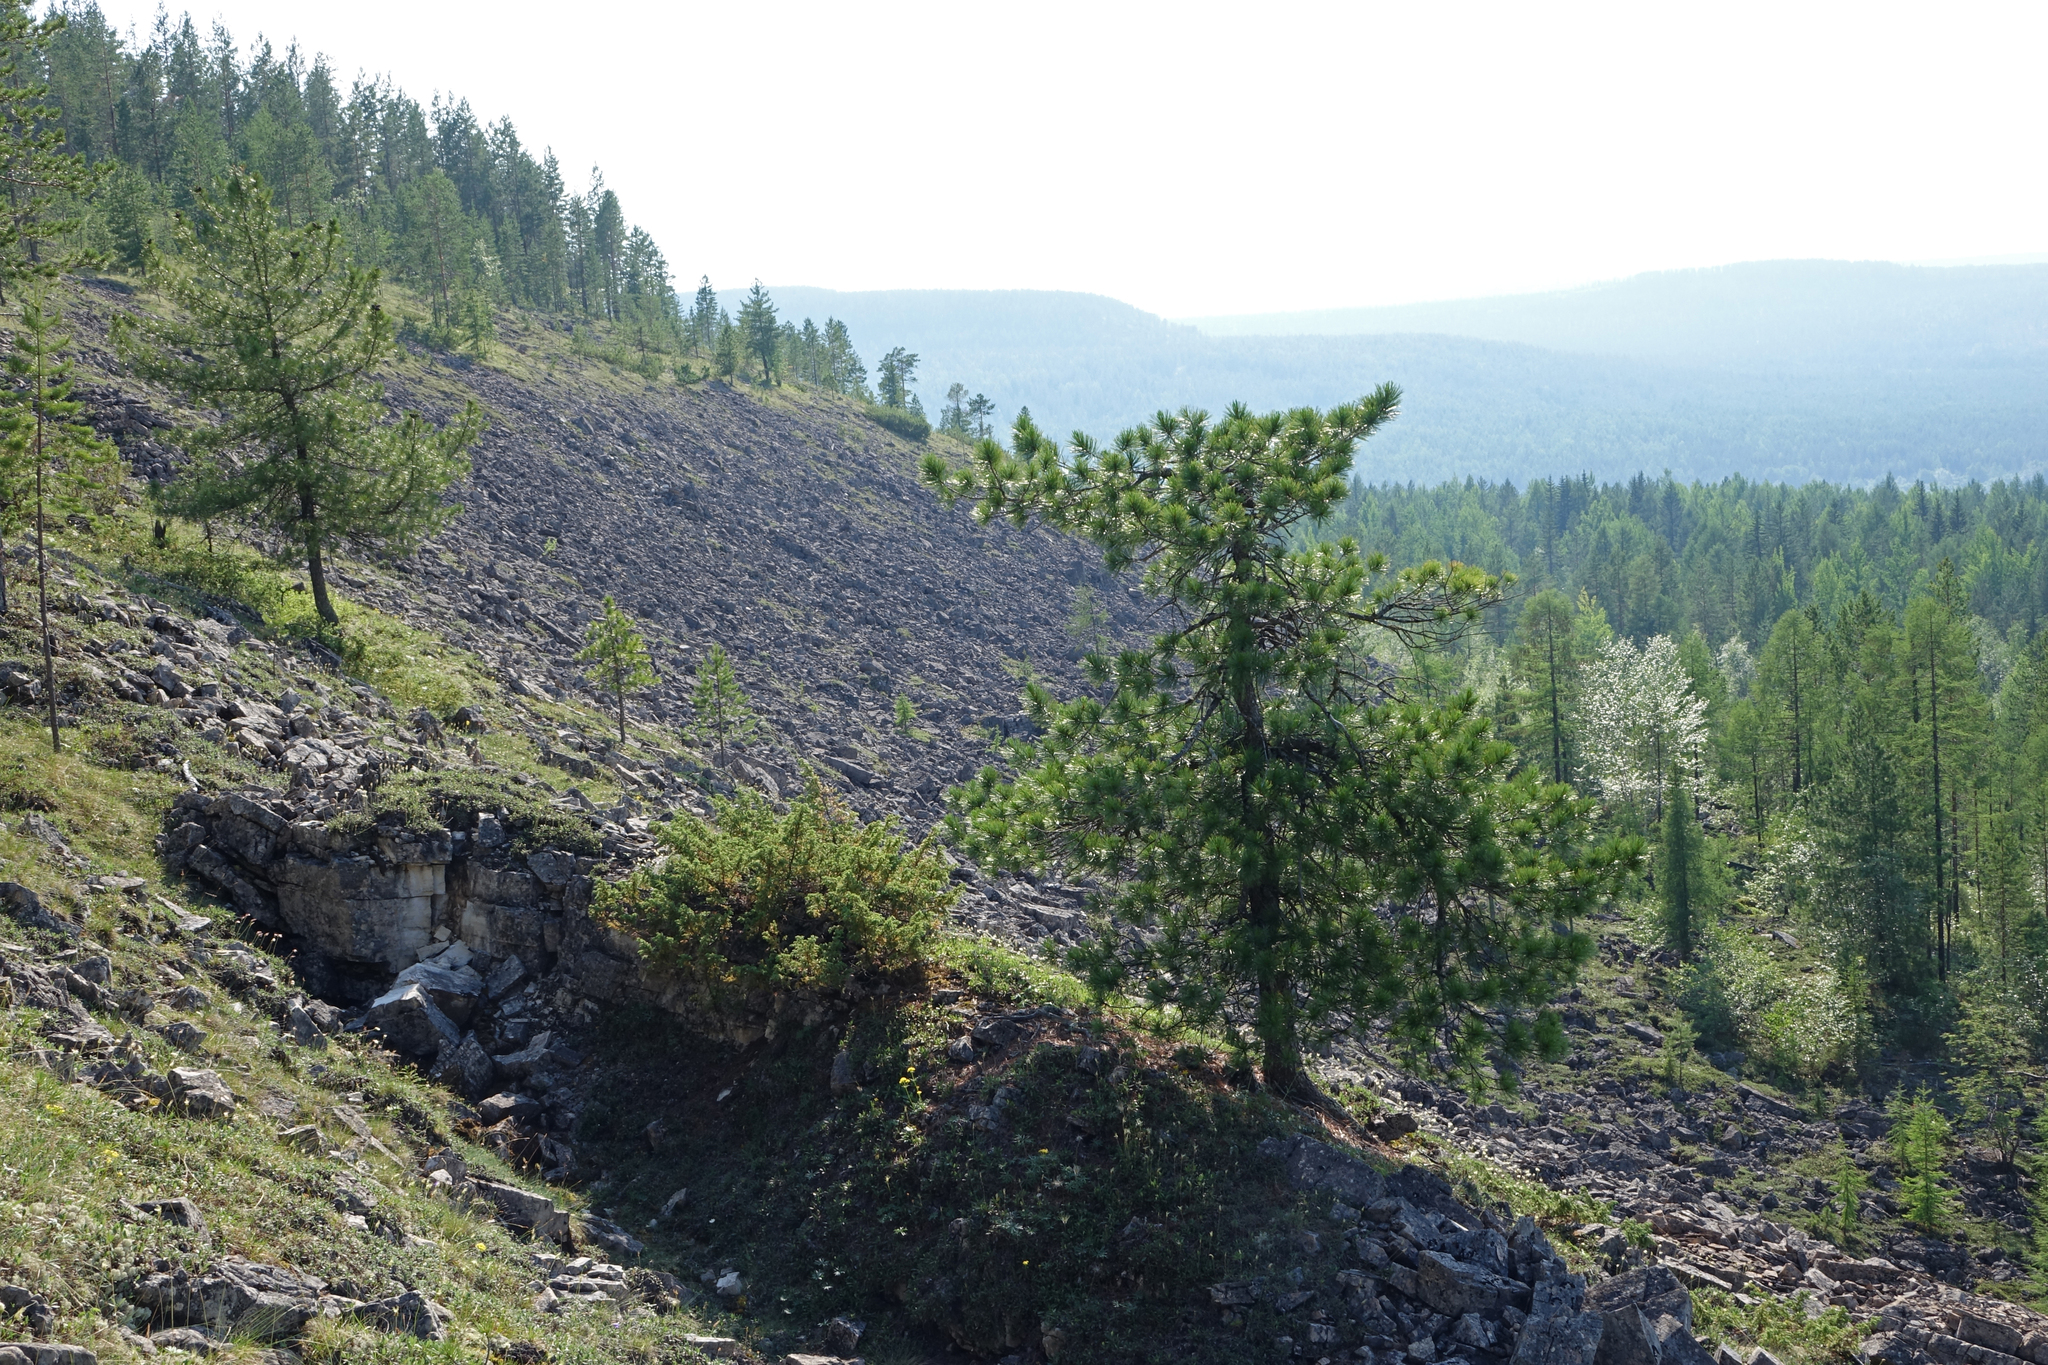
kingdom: Plantae
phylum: Tracheophyta
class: Pinopsida
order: Pinales
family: Pinaceae
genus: Pinus
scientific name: Pinus sibirica
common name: Siberian pine
